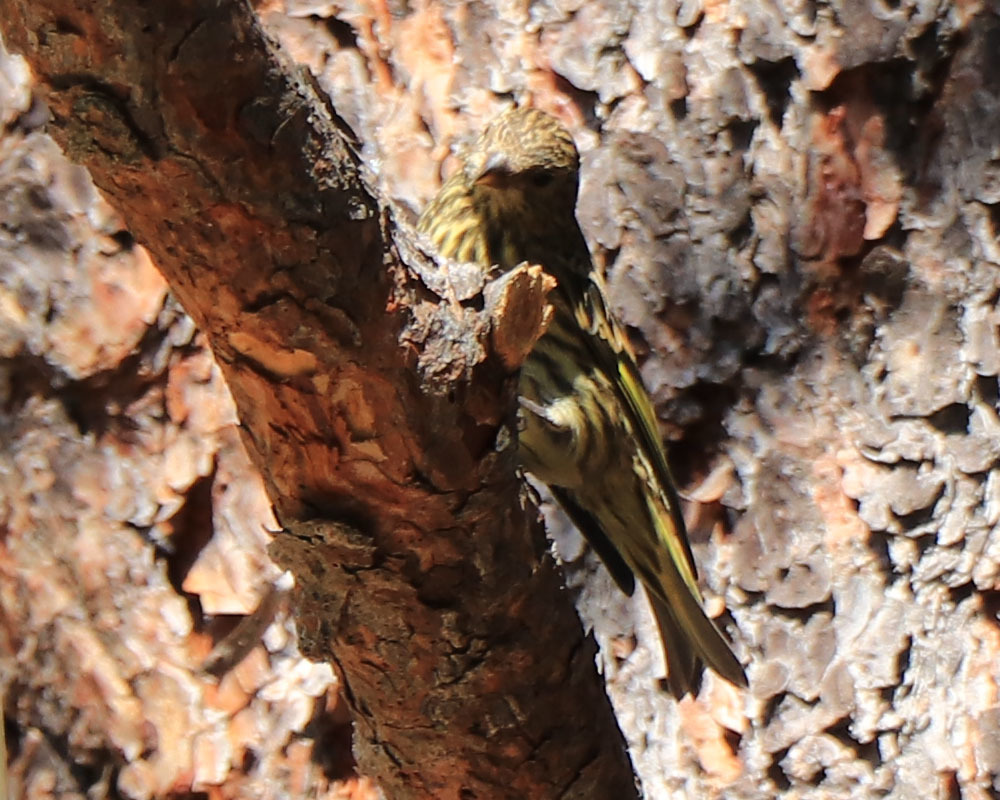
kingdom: Animalia
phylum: Chordata
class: Aves
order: Passeriformes
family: Fringillidae
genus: Spinus
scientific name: Spinus pinus
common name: Pine siskin
